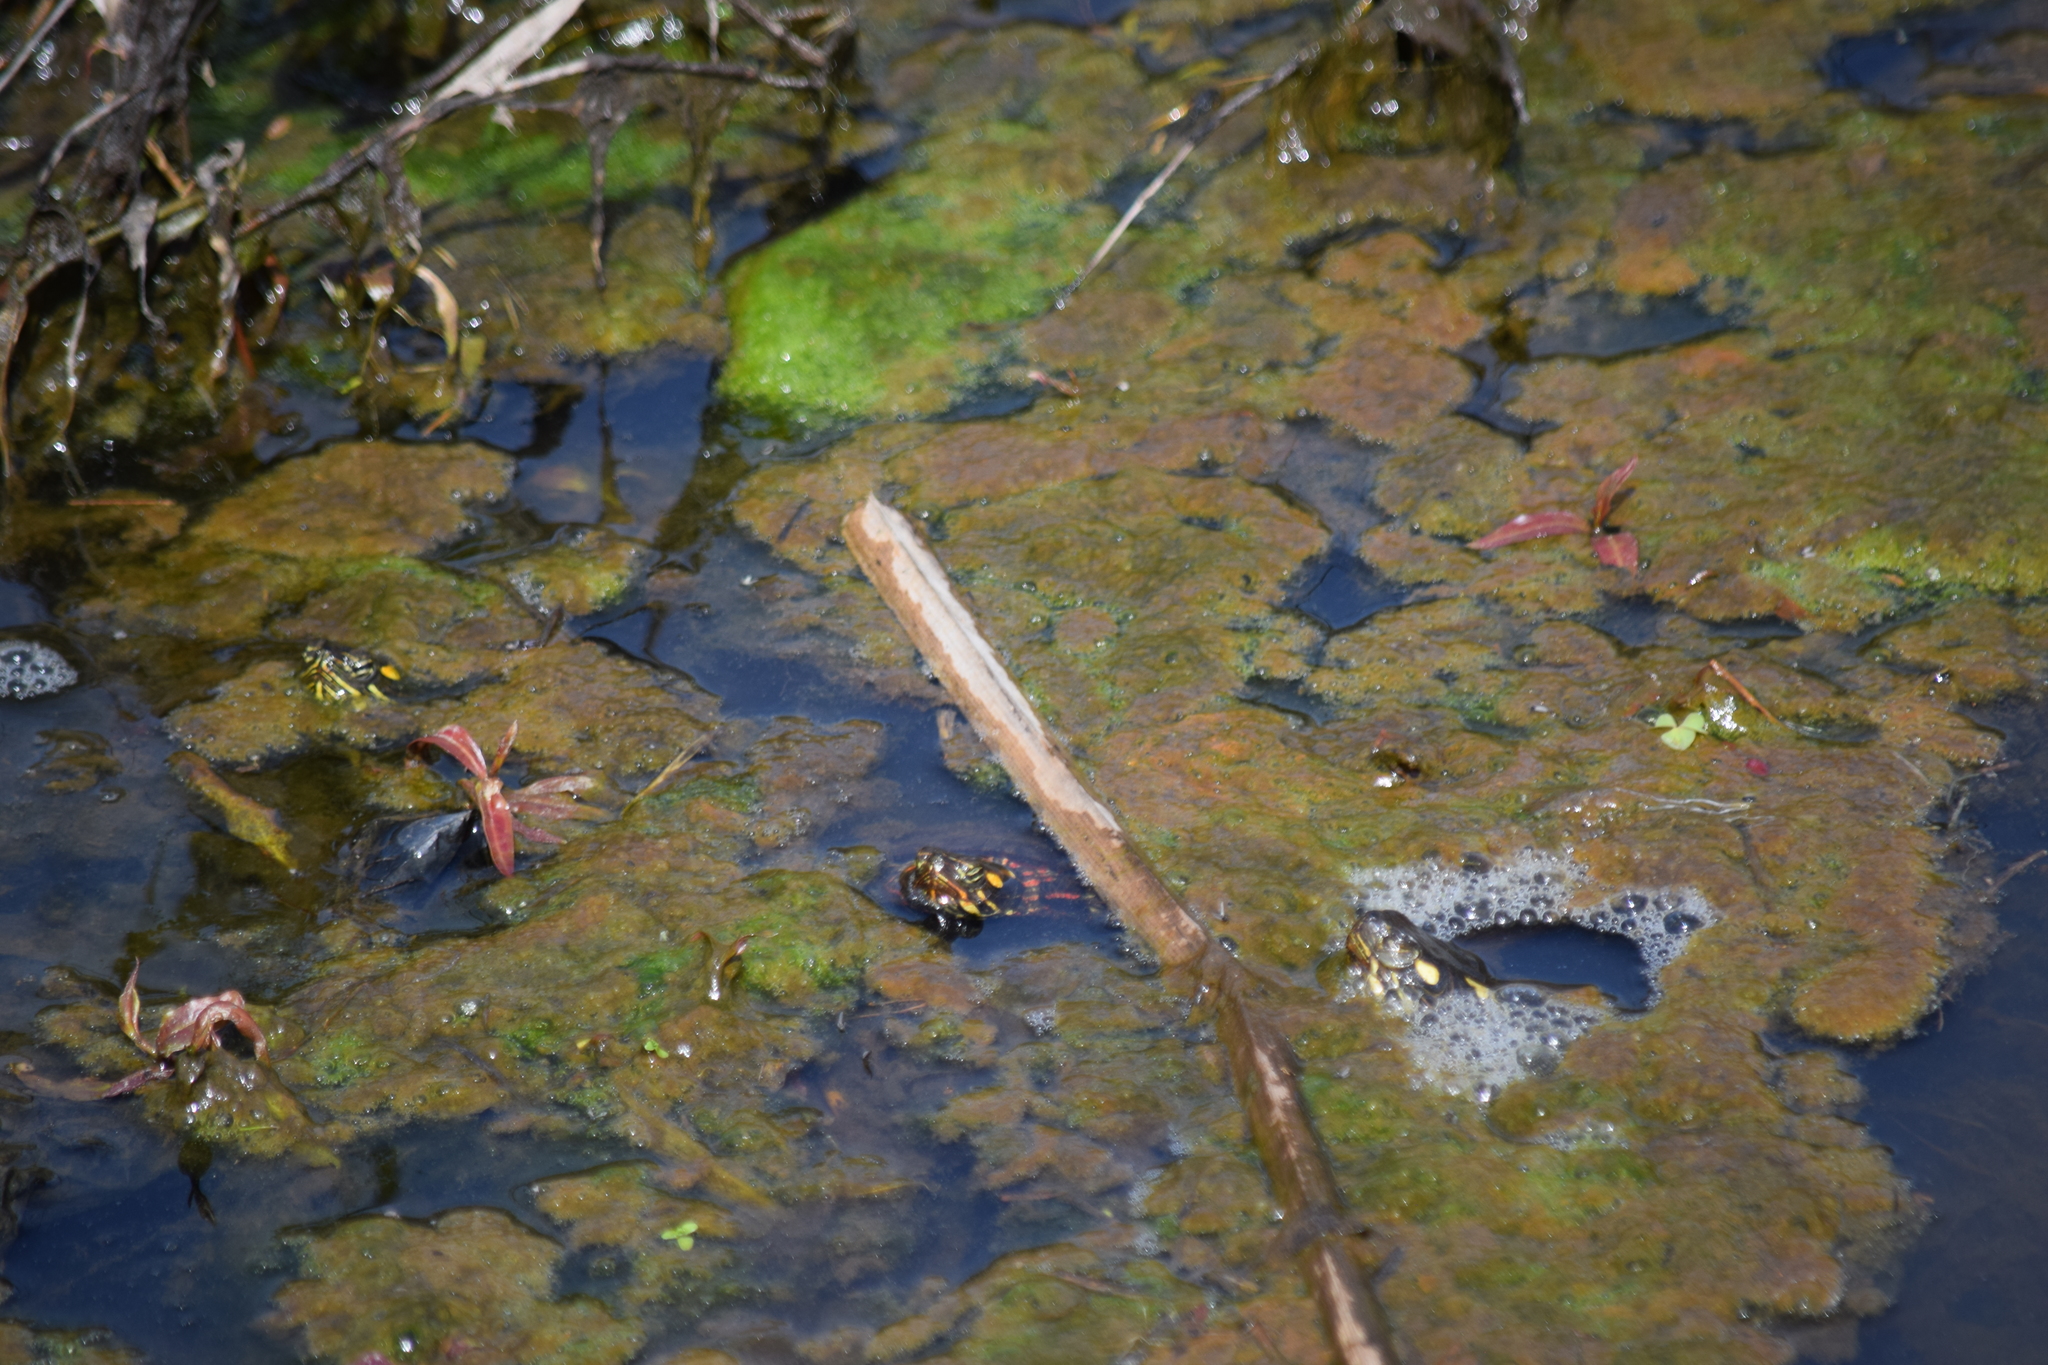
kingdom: Animalia
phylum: Chordata
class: Testudines
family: Emydidae
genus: Chrysemys
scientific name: Chrysemys picta
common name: Painted turtle
